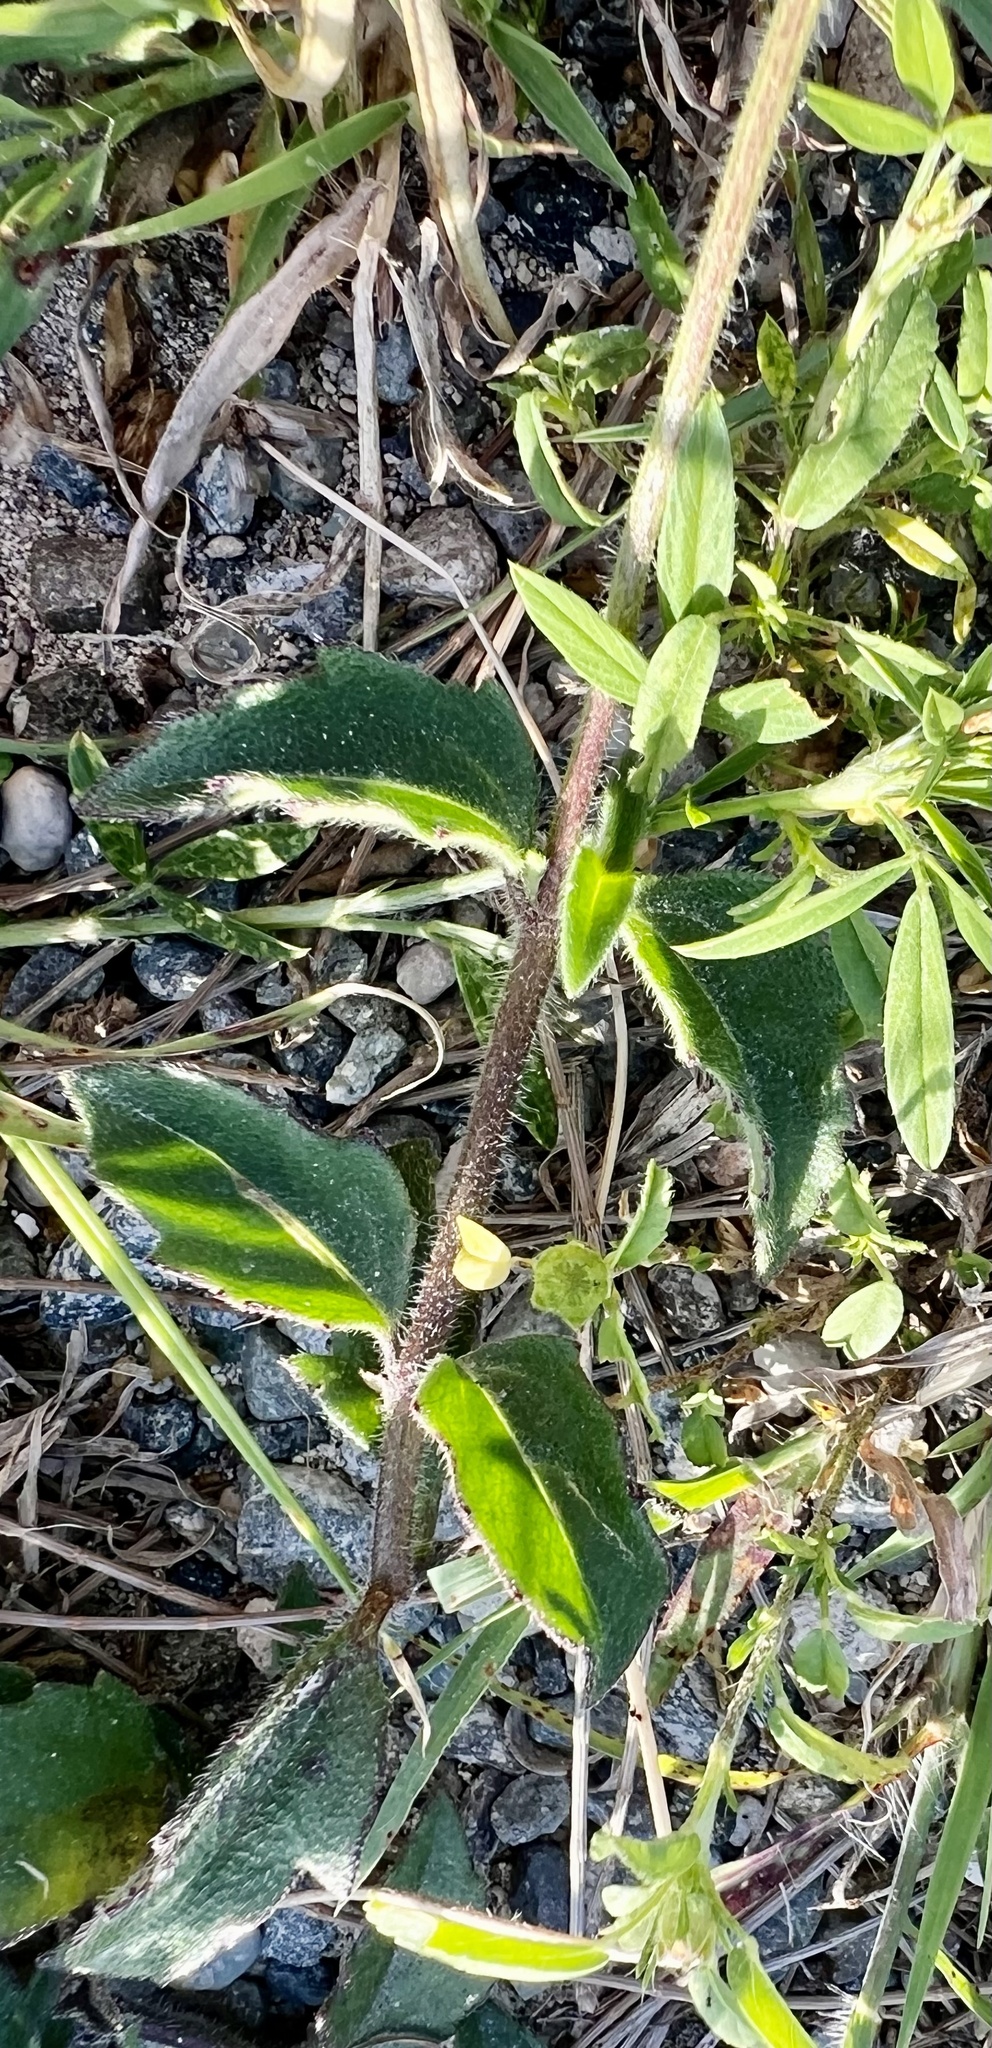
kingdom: Plantae
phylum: Tracheophyta
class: Magnoliopsida
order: Asterales
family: Asteraceae
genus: Tridax
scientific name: Tridax procumbens
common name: Coatbuttons
